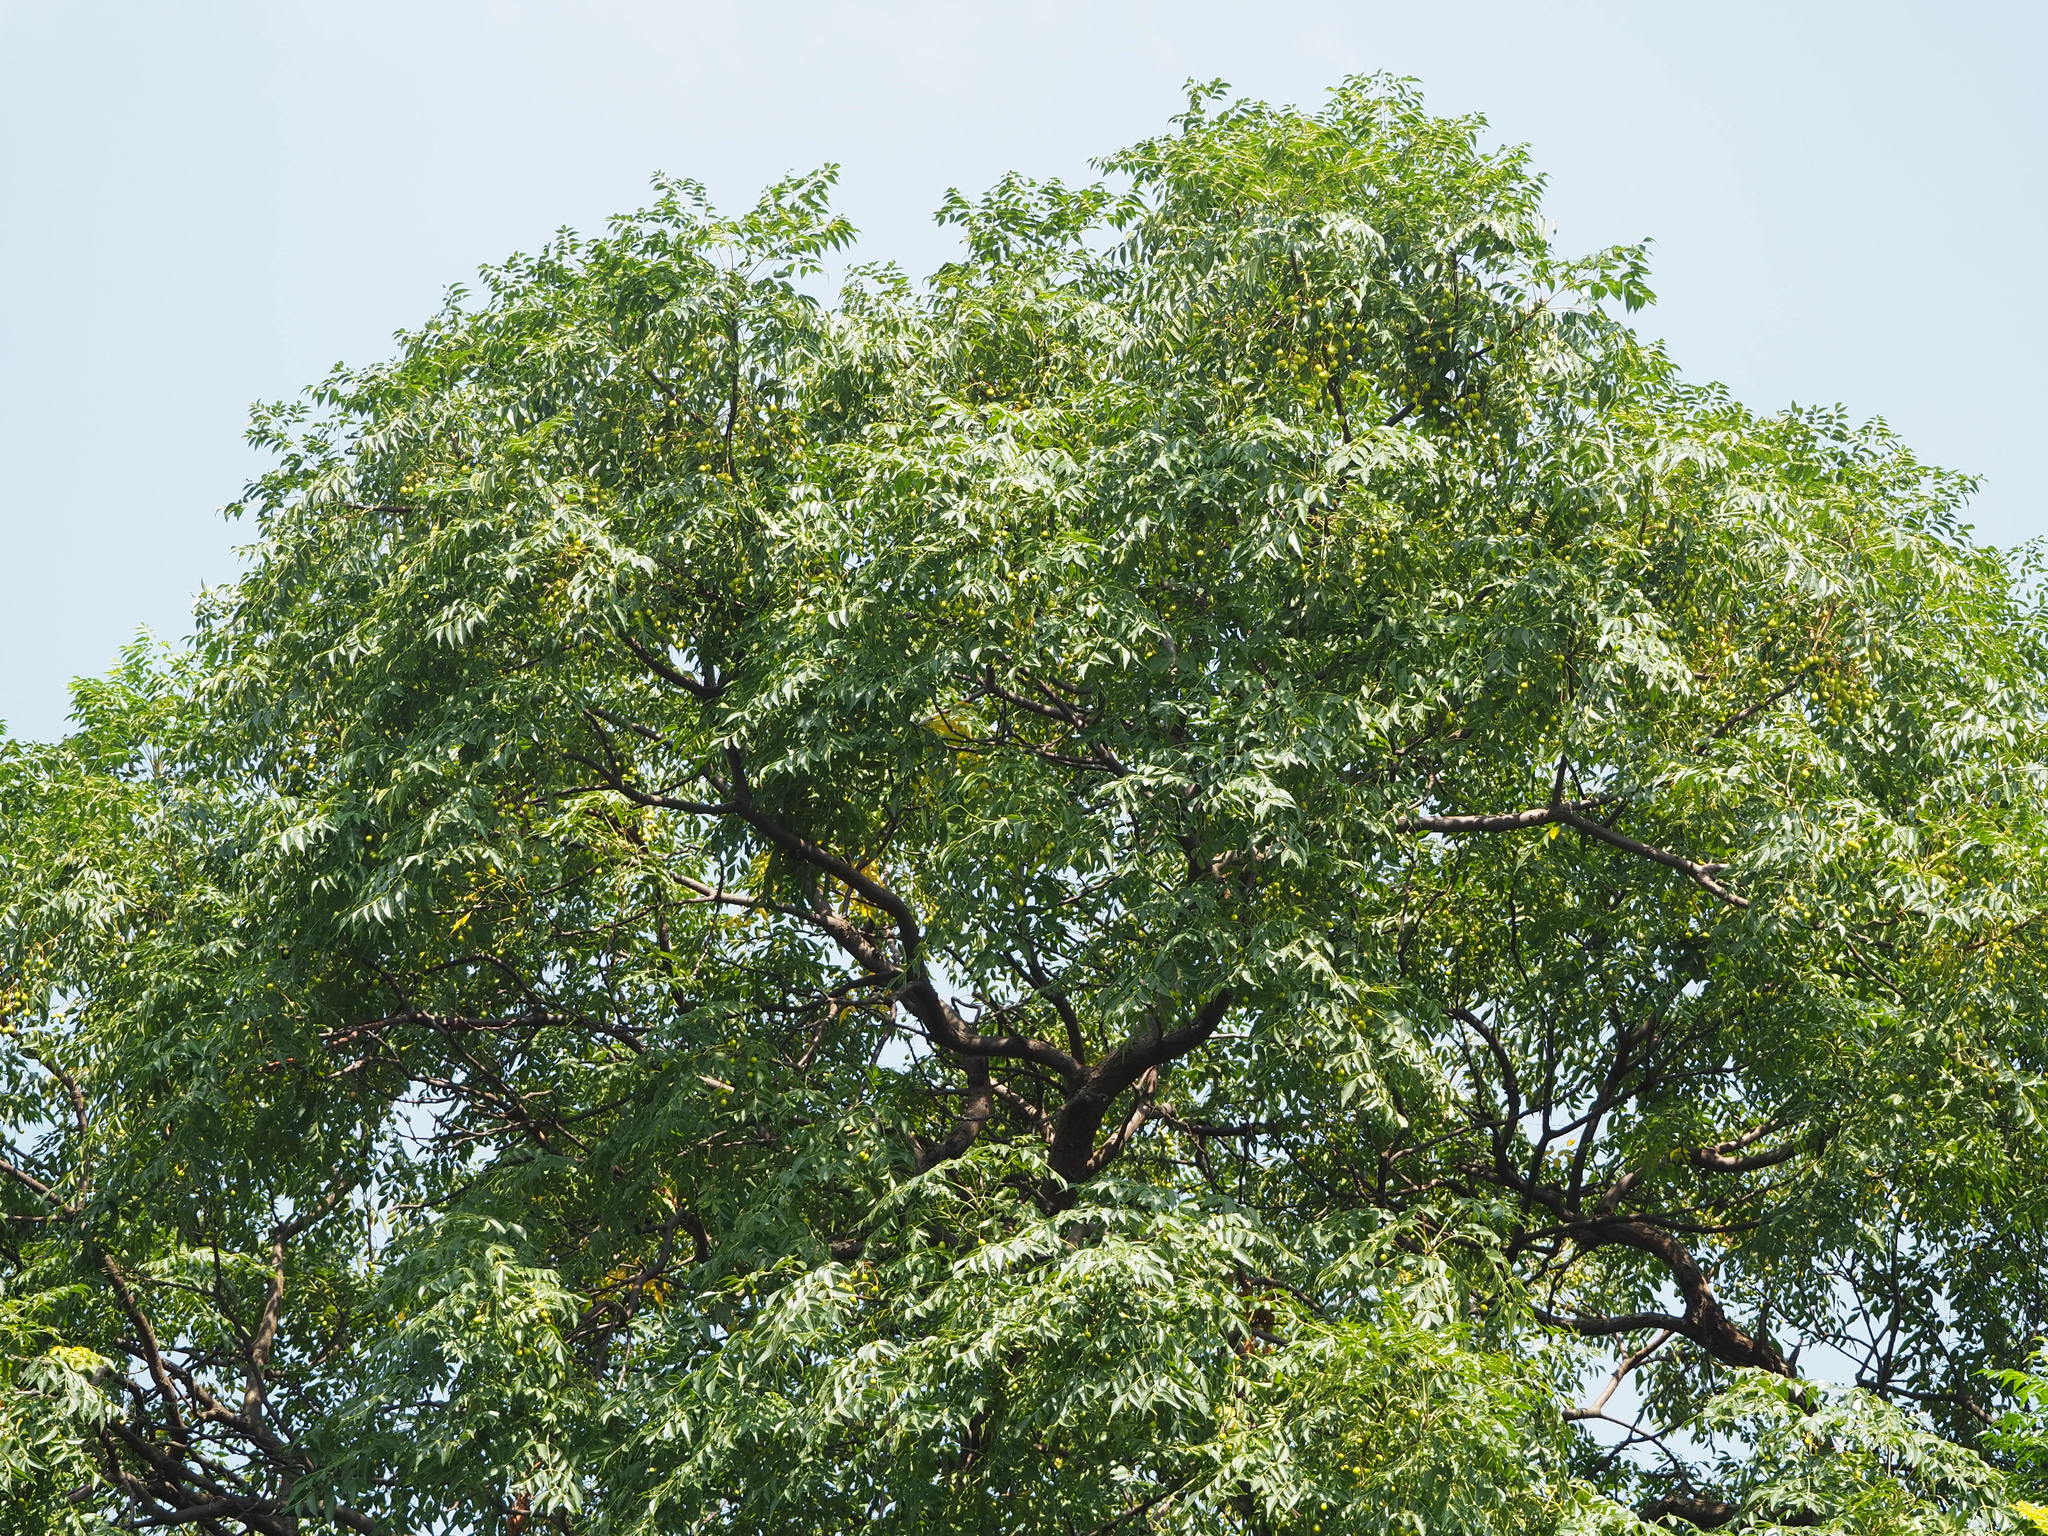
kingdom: Plantae
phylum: Tracheophyta
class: Magnoliopsida
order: Sapindales
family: Meliaceae
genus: Melia
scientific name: Melia azedarach
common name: Chinaberrytree
